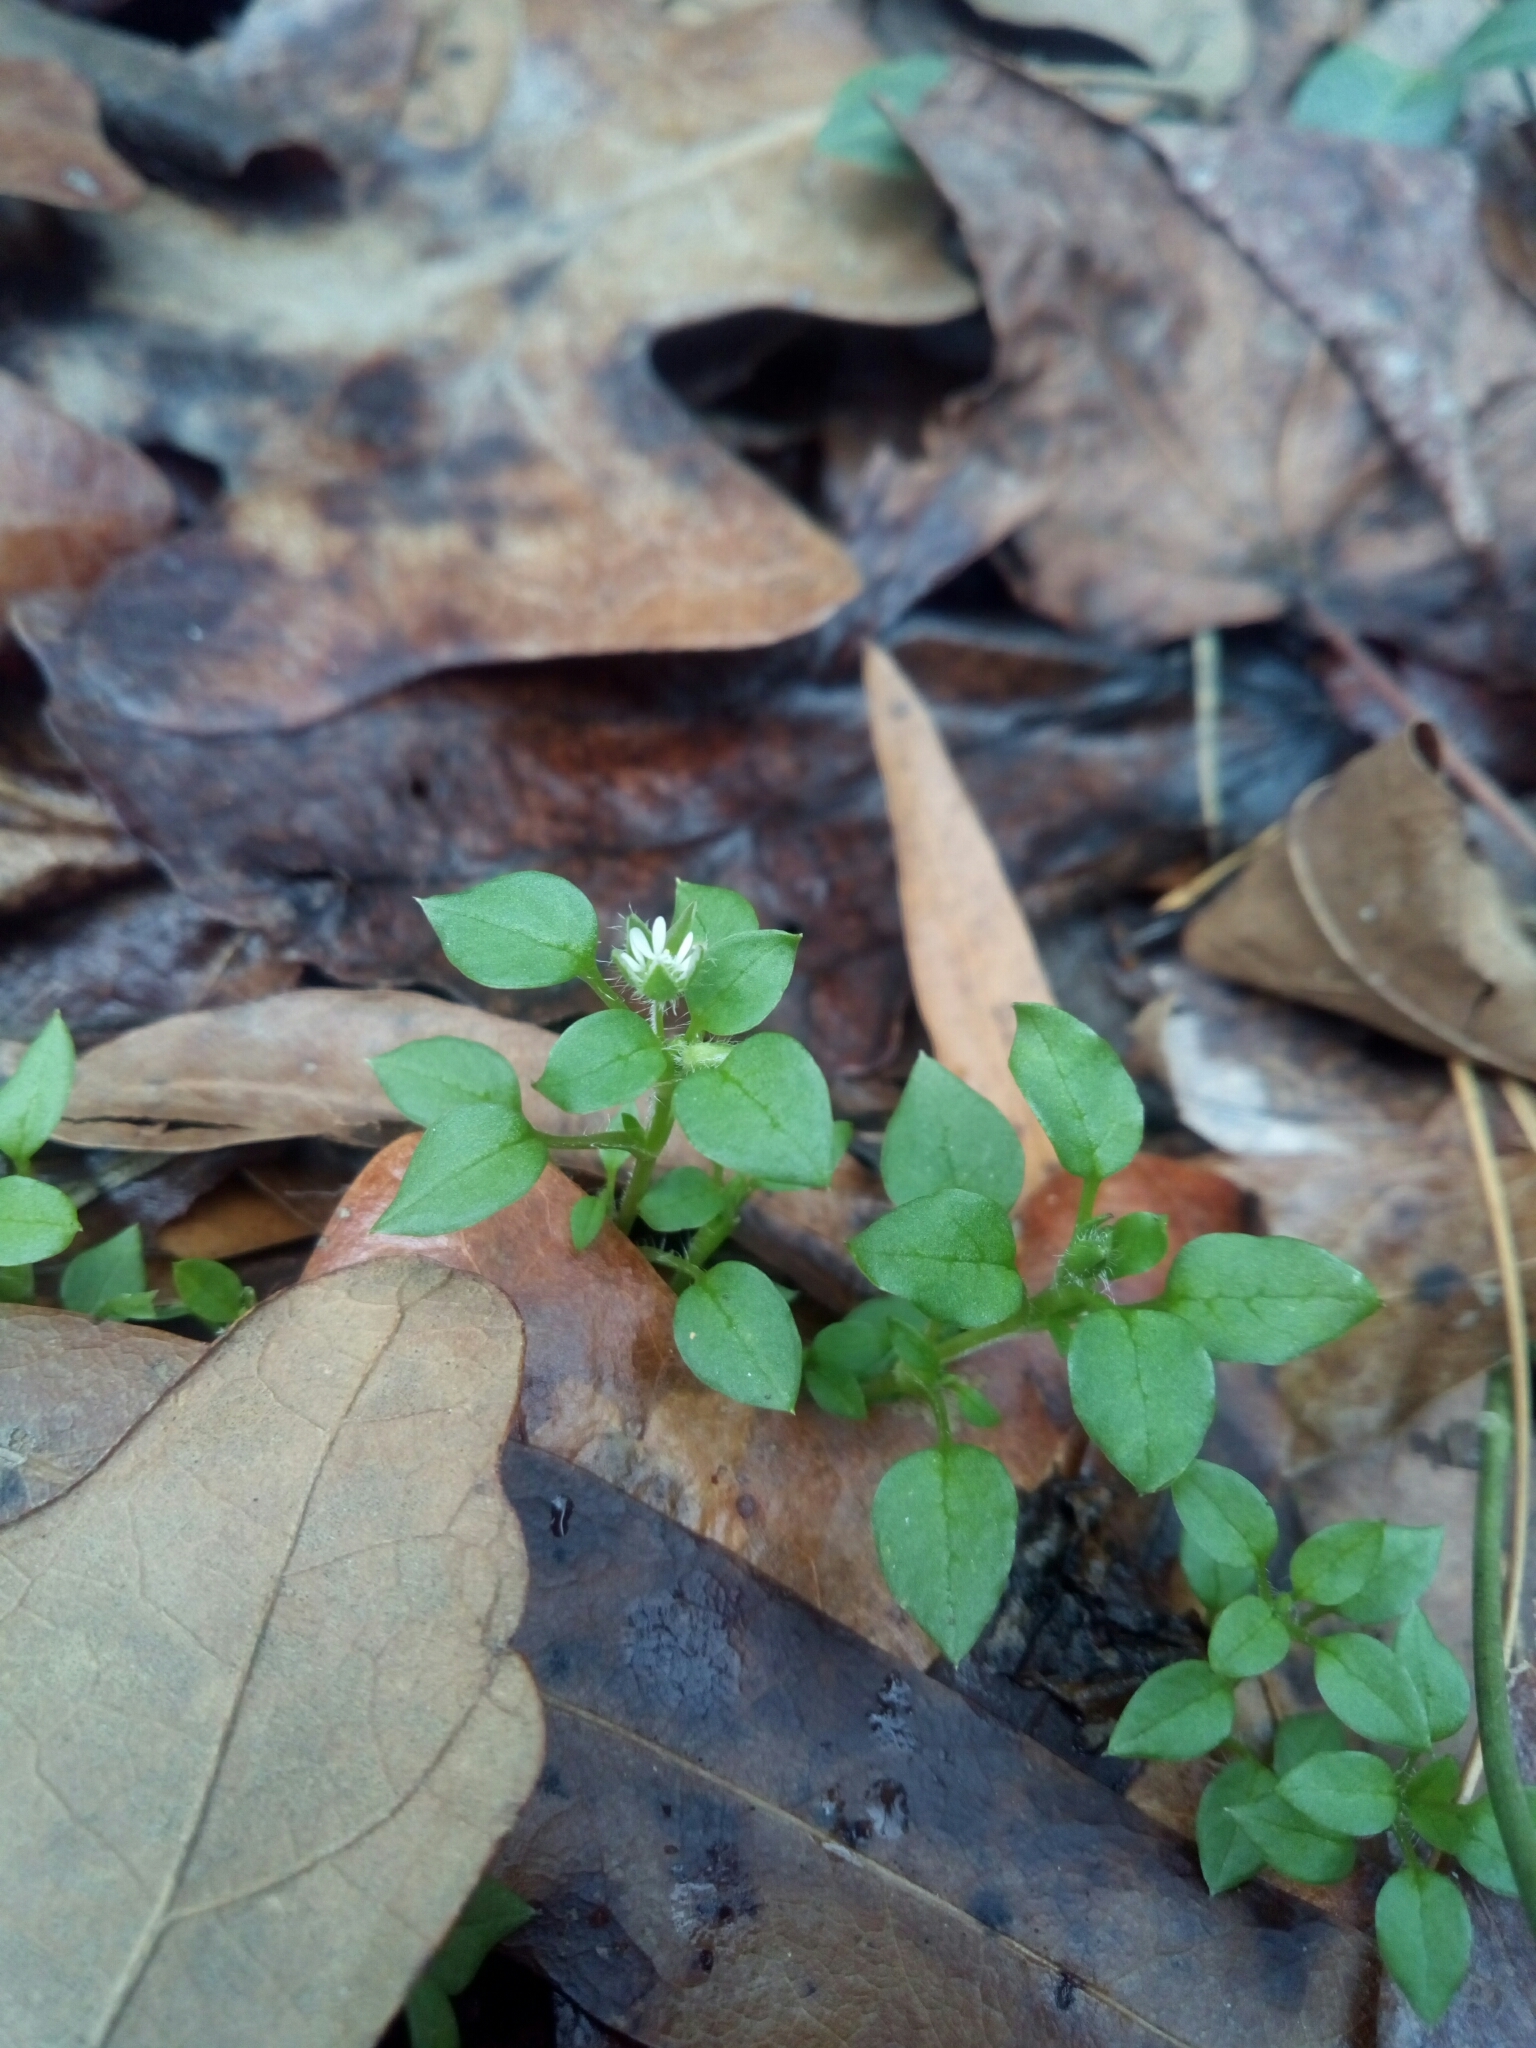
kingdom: Plantae
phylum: Tracheophyta
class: Magnoliopsida
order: Caryophyllales
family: Caryophyllaceae
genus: Stellaria
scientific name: Stellaria media
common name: Common chickweed
